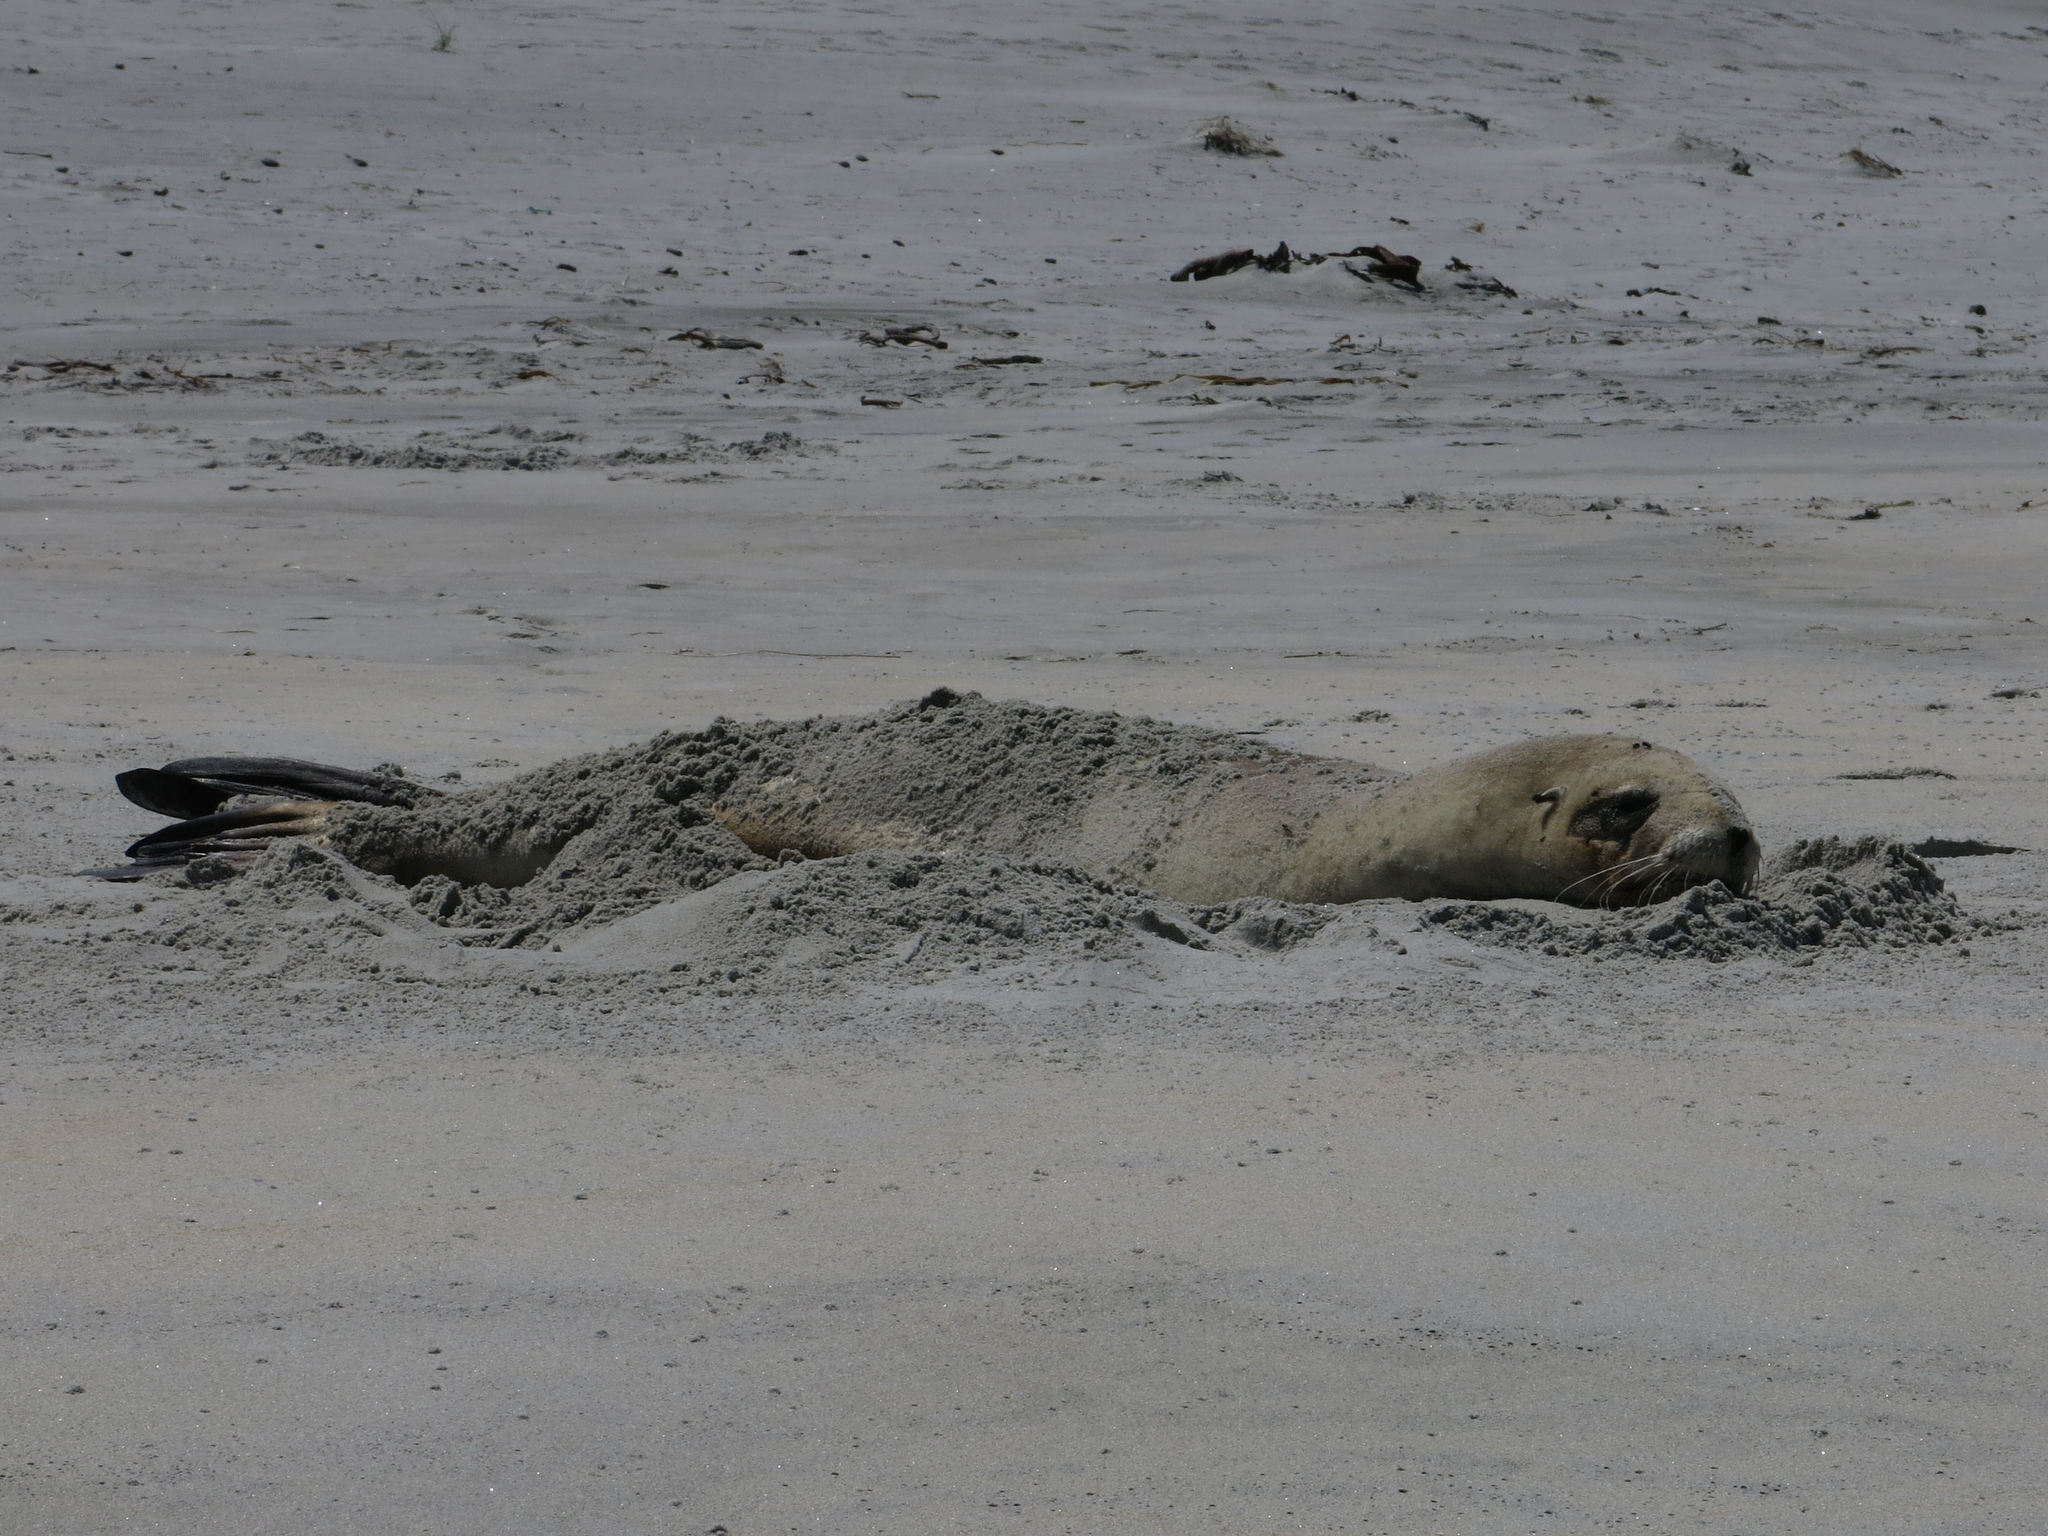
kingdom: Animalia
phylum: Chordata
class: Mammalia
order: Carnivora
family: Otariidae
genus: Phocarctos
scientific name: Phocarctos hookeri
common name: New zealand sea lion
